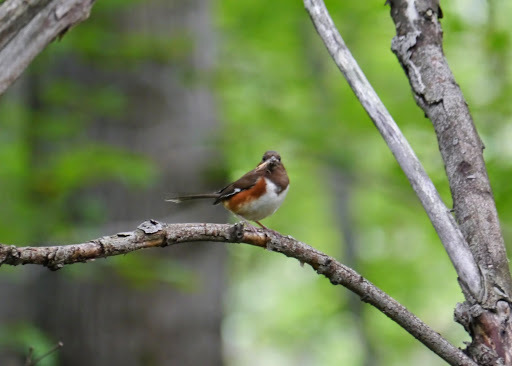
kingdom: Animalia
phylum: Chordata
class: Aves
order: Passeriformes
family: Passerellidae
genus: Pipilo
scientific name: Pipilo erythrophthalmus
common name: Eastern towhee
